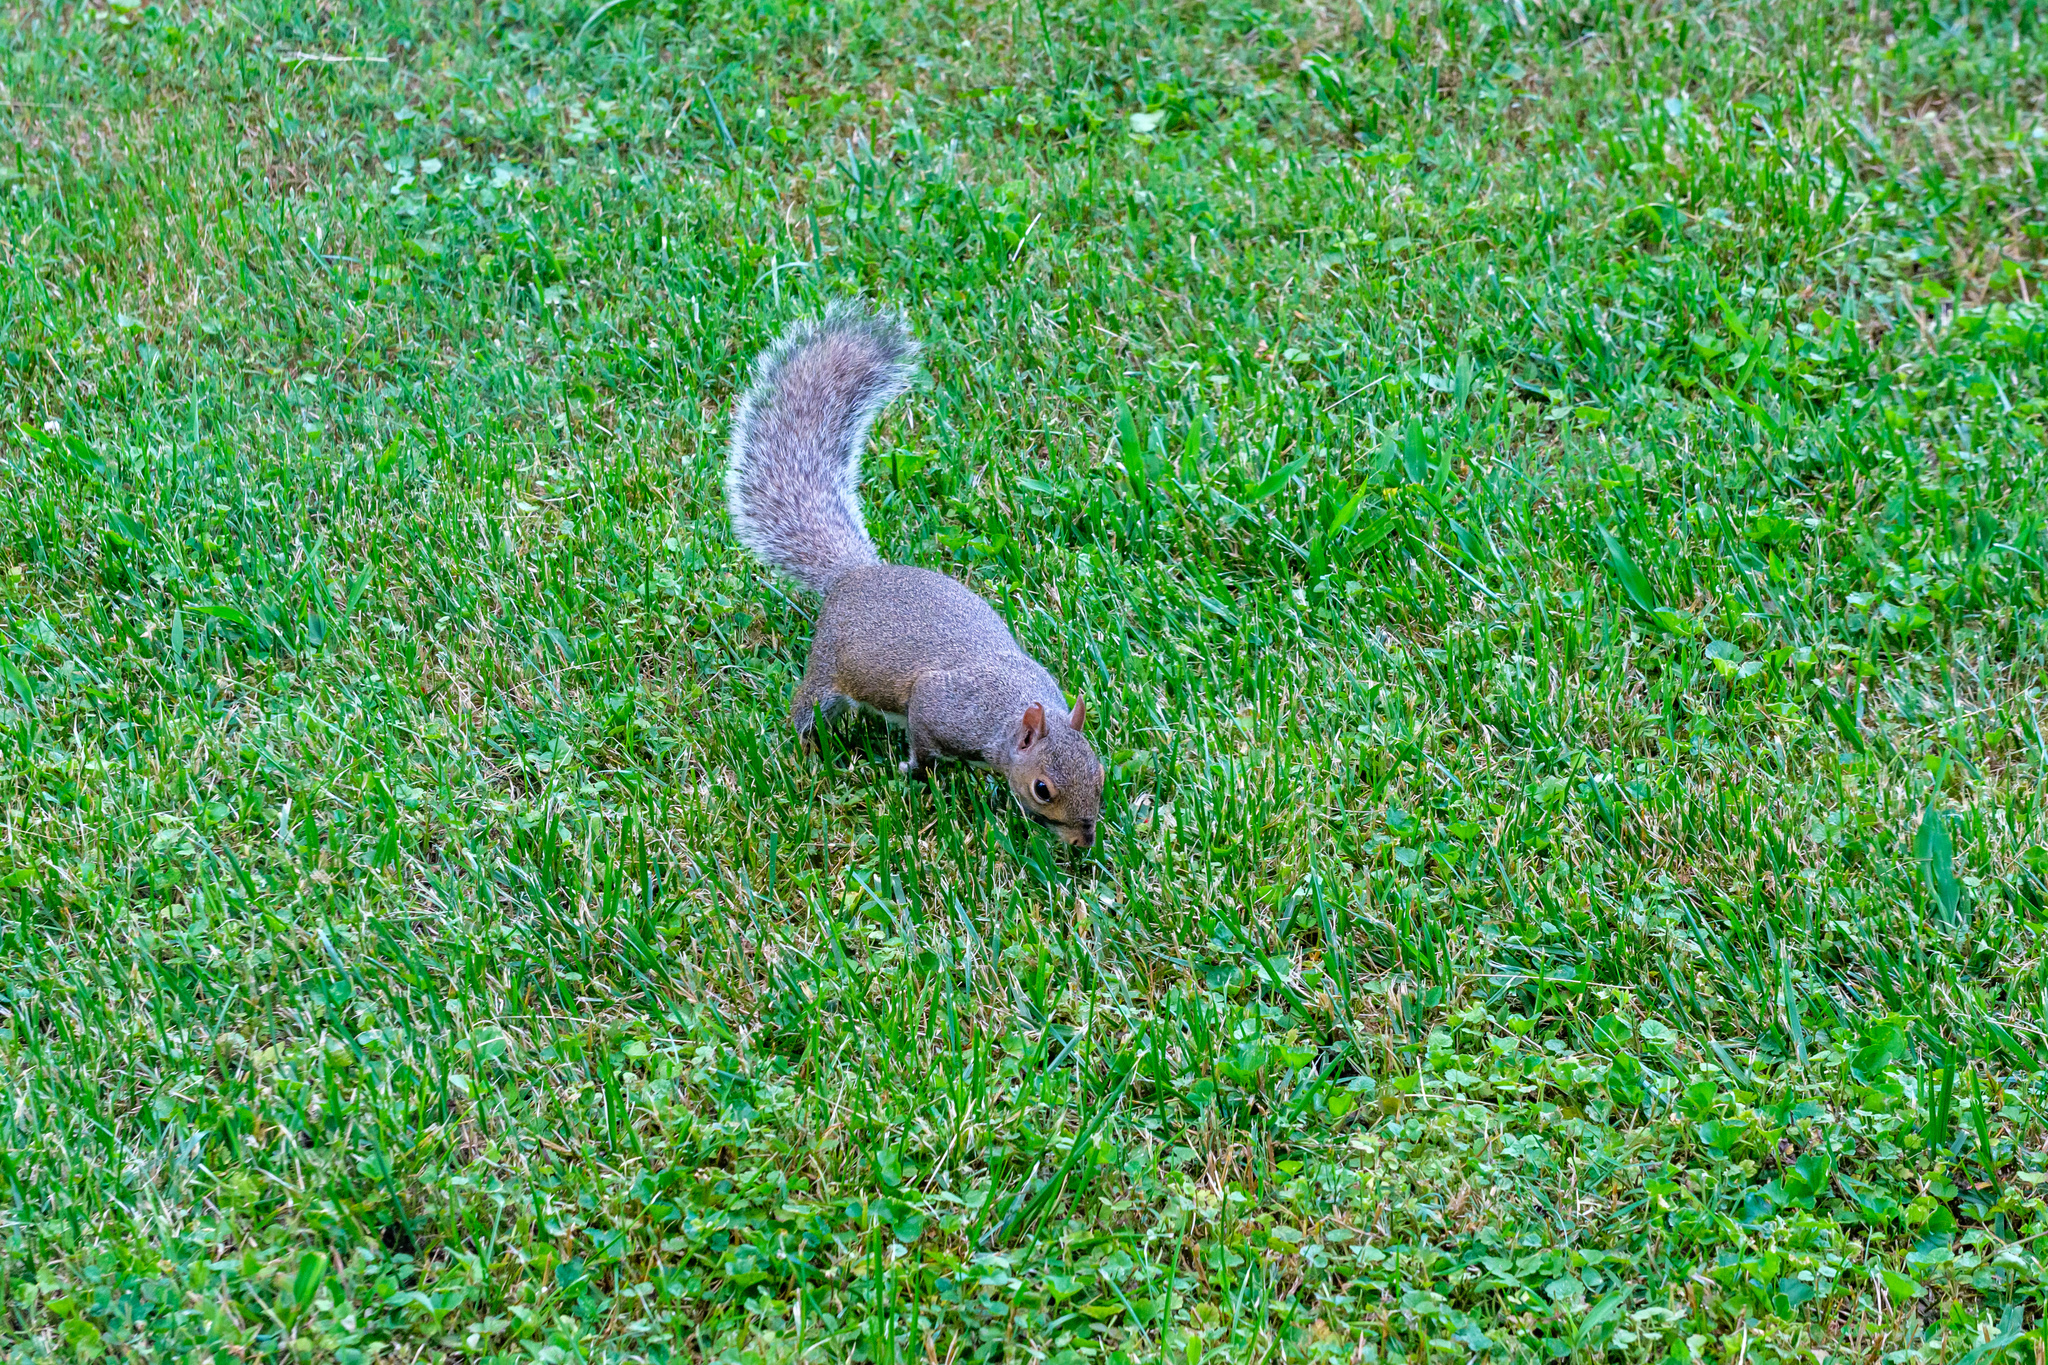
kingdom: Animalia
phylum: Chordata
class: Mammalia
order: Rodentia
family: Sciuridae
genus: Sciurus
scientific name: Sciurus carolinensis
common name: Eastern gray squirrel
